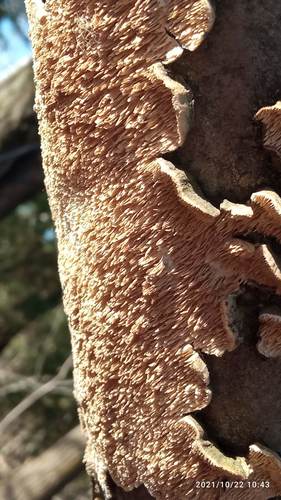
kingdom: Fungi
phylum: Basidiomycota
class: Agaricomycetes
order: Polyporales
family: Irpicaceae
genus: Irpex
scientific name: Irpex lacteus
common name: Milk-white toothed polypore
